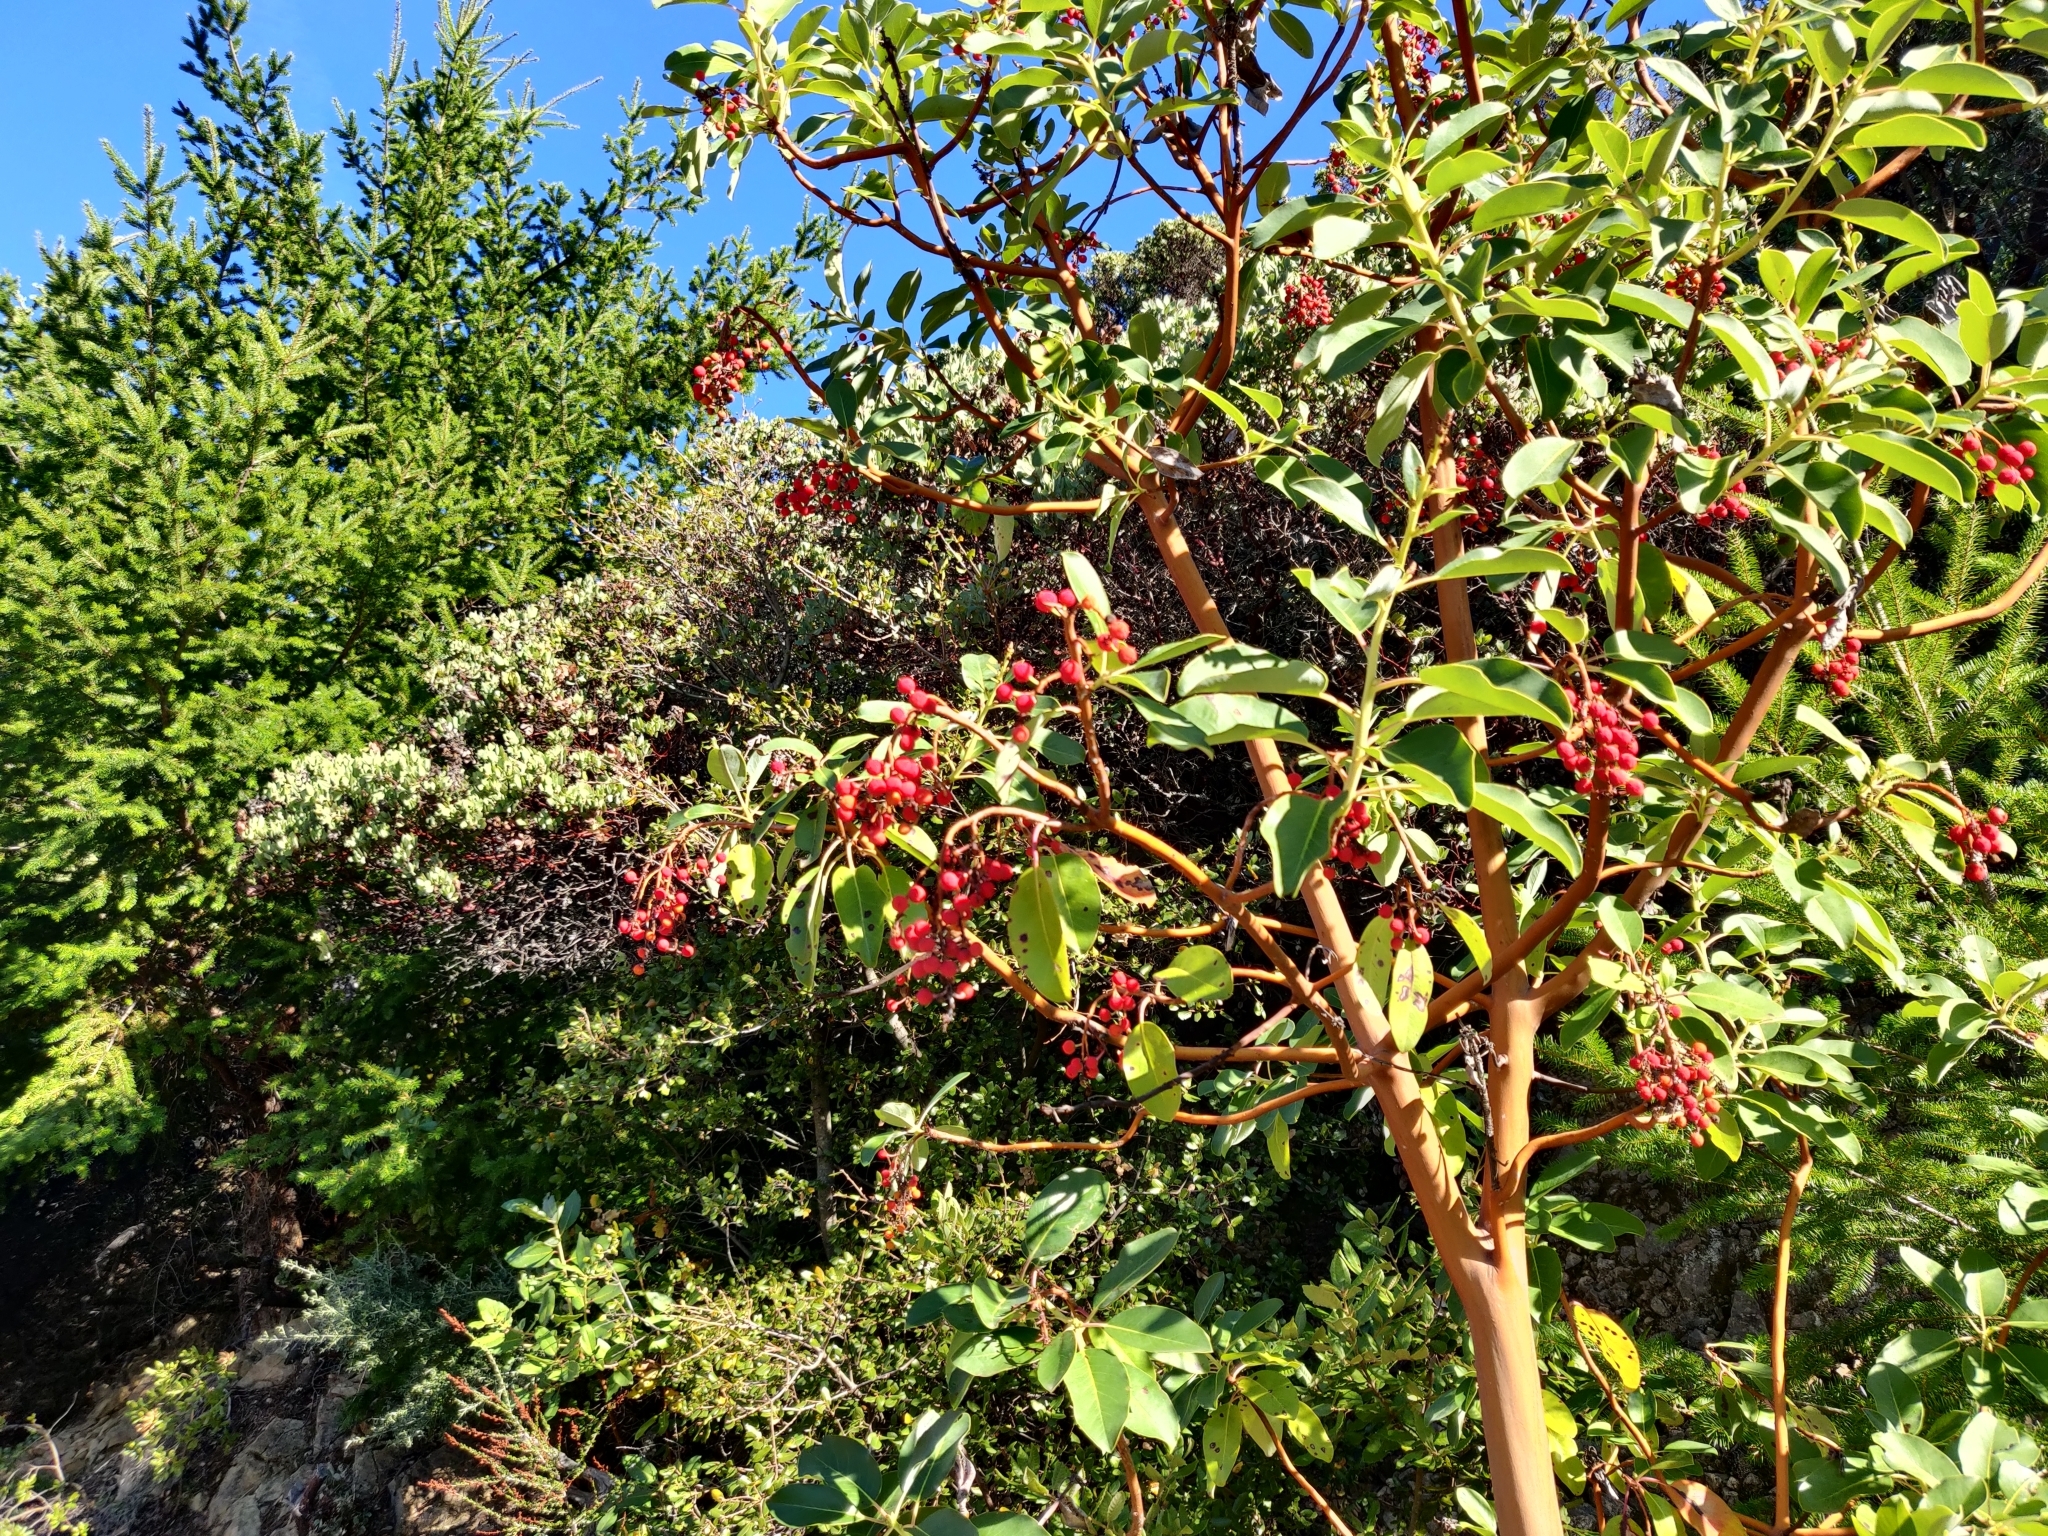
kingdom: Plantae
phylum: Tracheophyta
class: Magnoliopsida
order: Ericales
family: Ericaceae
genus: Arbutus
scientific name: Arbutus menziesii
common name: Pacific madrone
